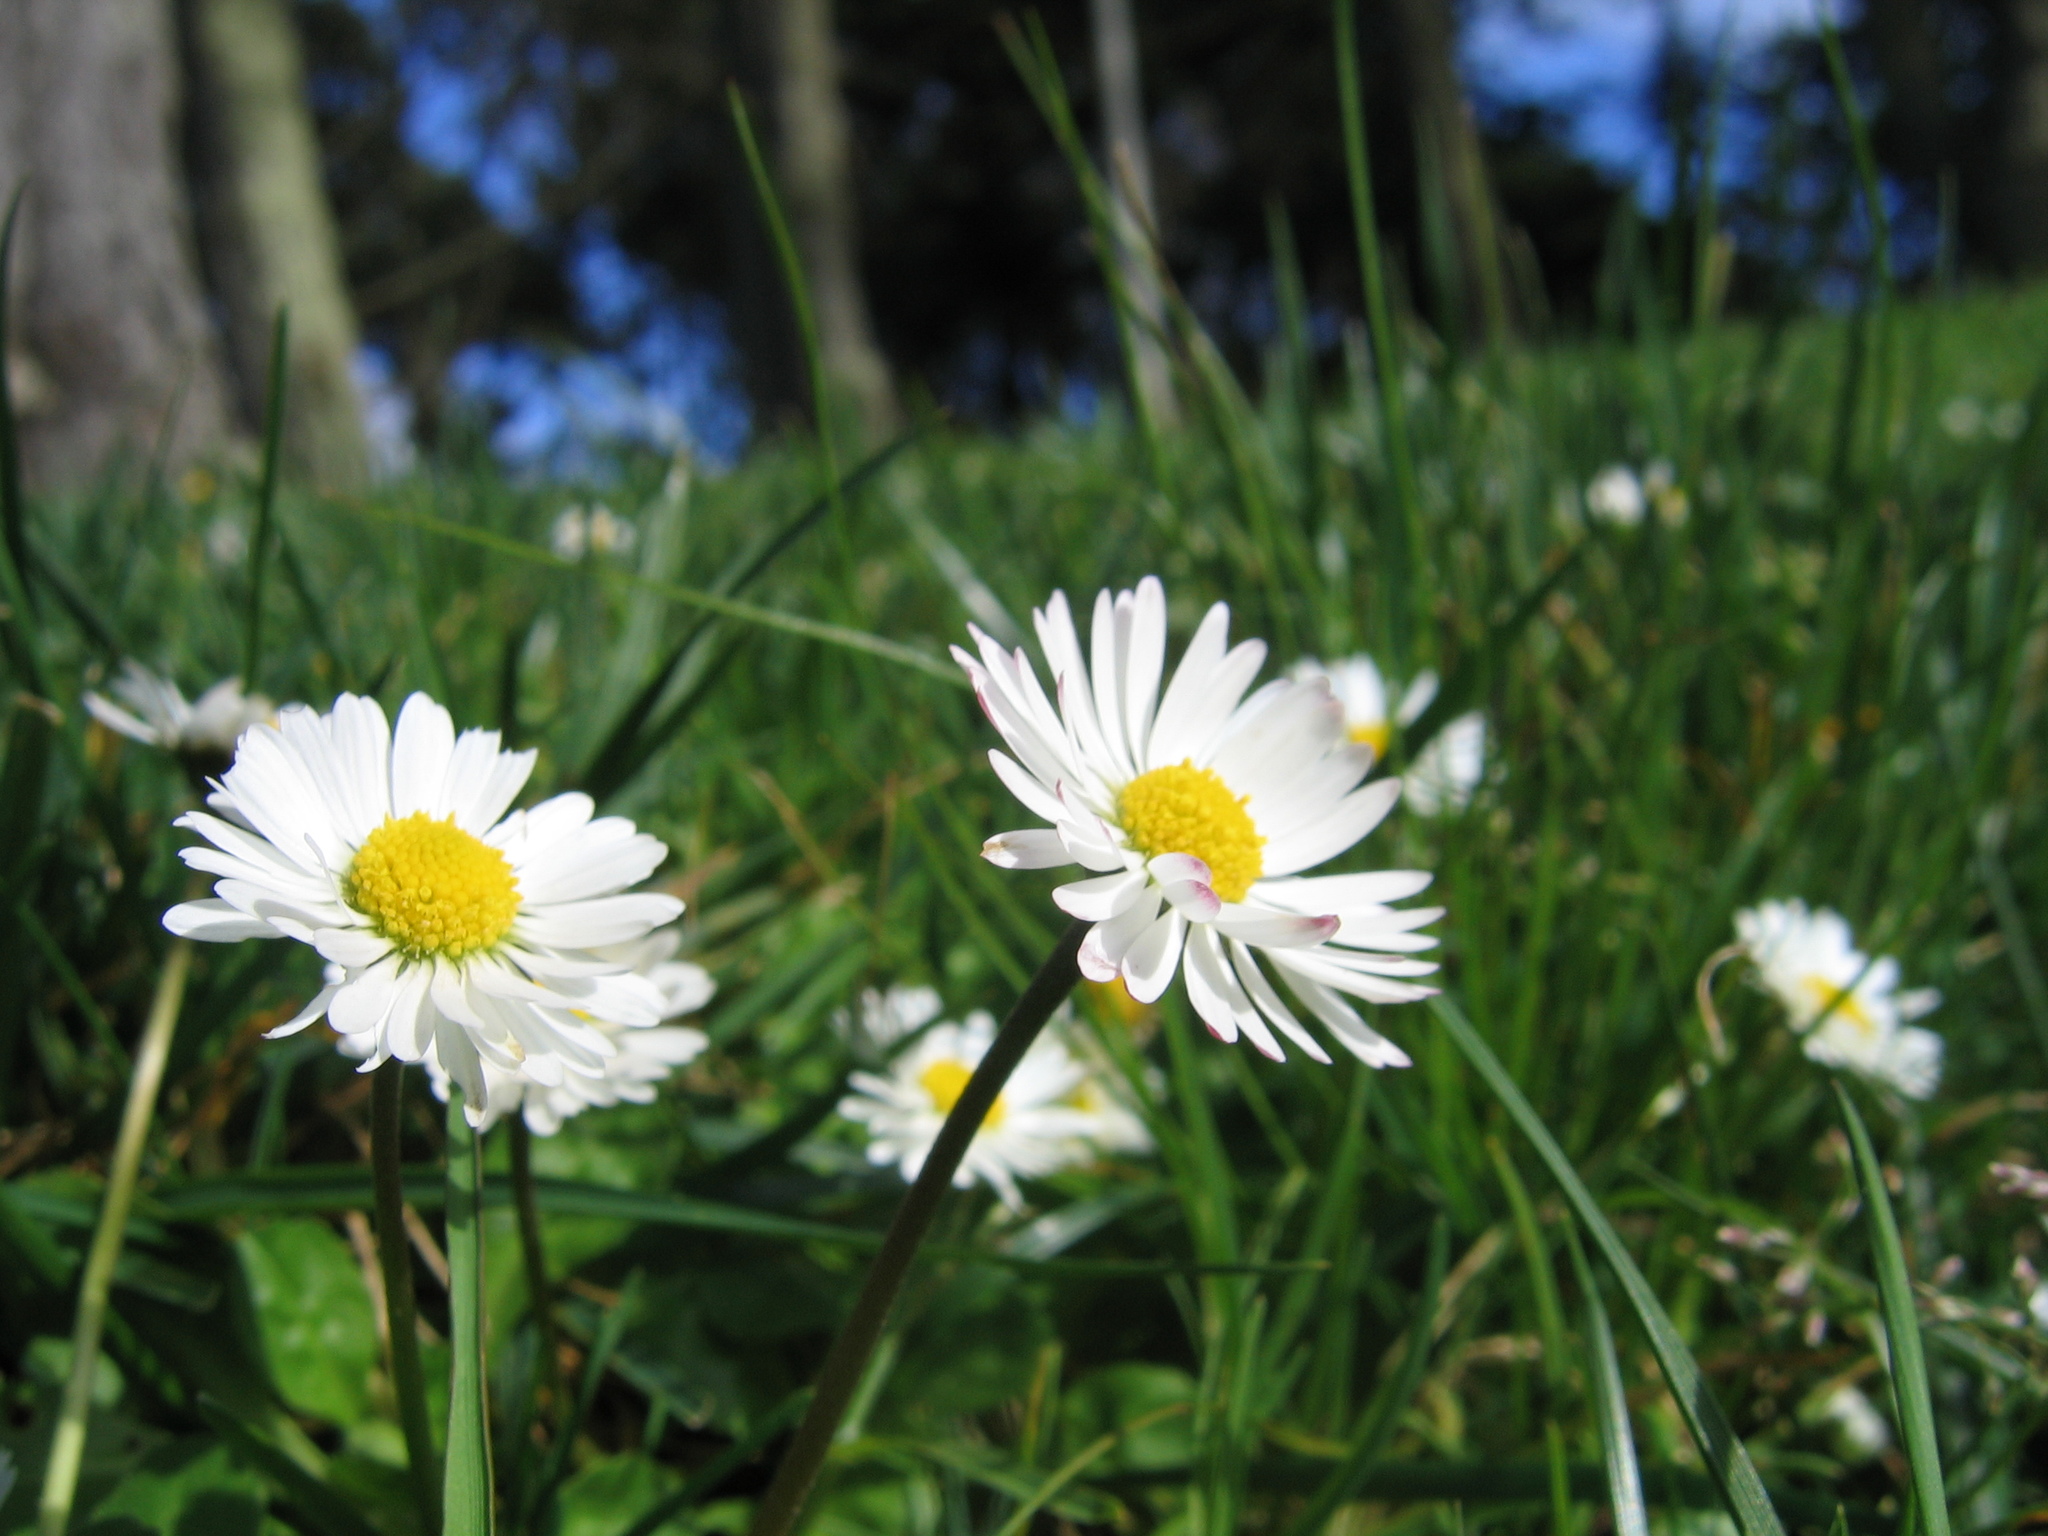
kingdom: Plantae
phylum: Tracheophyta
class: Magnoliopsida
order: Asterales
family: Asteraceae
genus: Bellis
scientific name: Bellis perennis
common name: Lawndaisy
